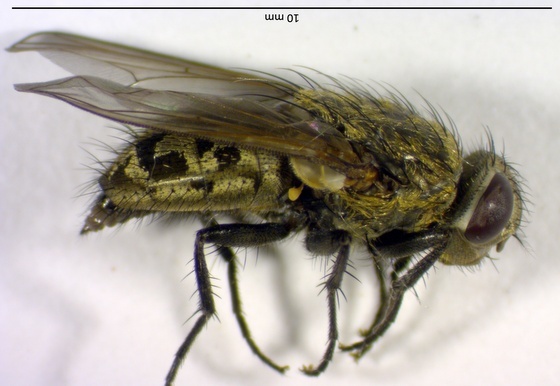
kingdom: Animalia
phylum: Arthropoda
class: Insecta
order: Diptera
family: Polleniidae
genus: Pollenia
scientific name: Pollenia
